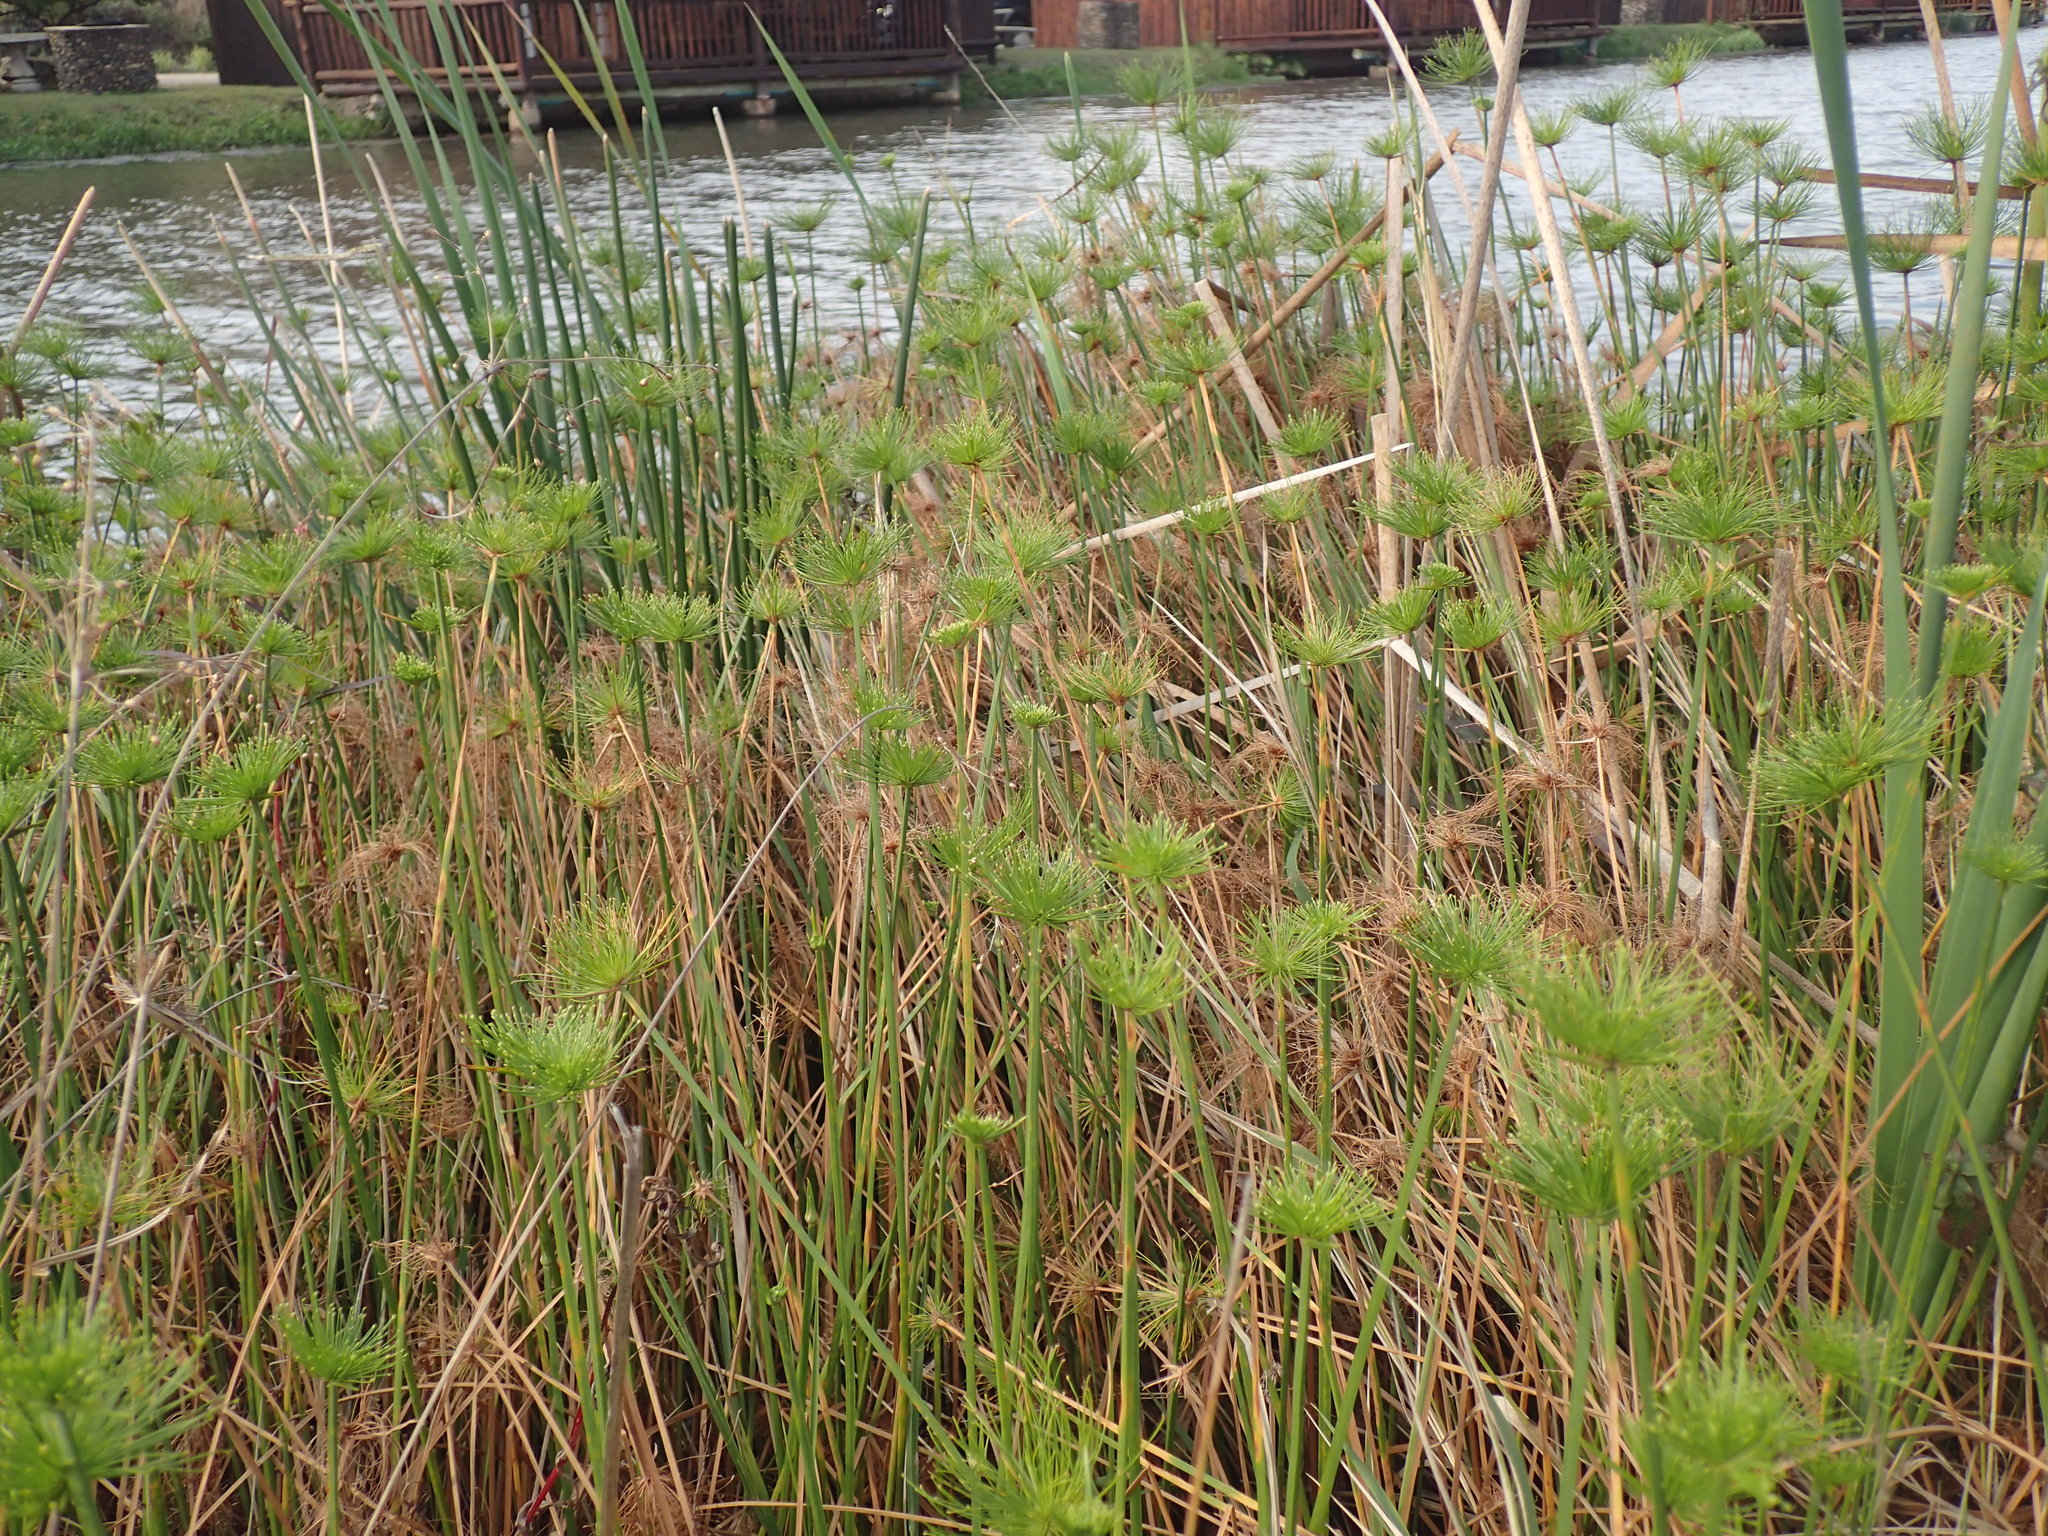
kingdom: Plantae
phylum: Tracheophyta
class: Liliopsida
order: Poales
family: Cyperaceae
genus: Cyperus
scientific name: Cyperus prolifer
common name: Miniature flatsedge
